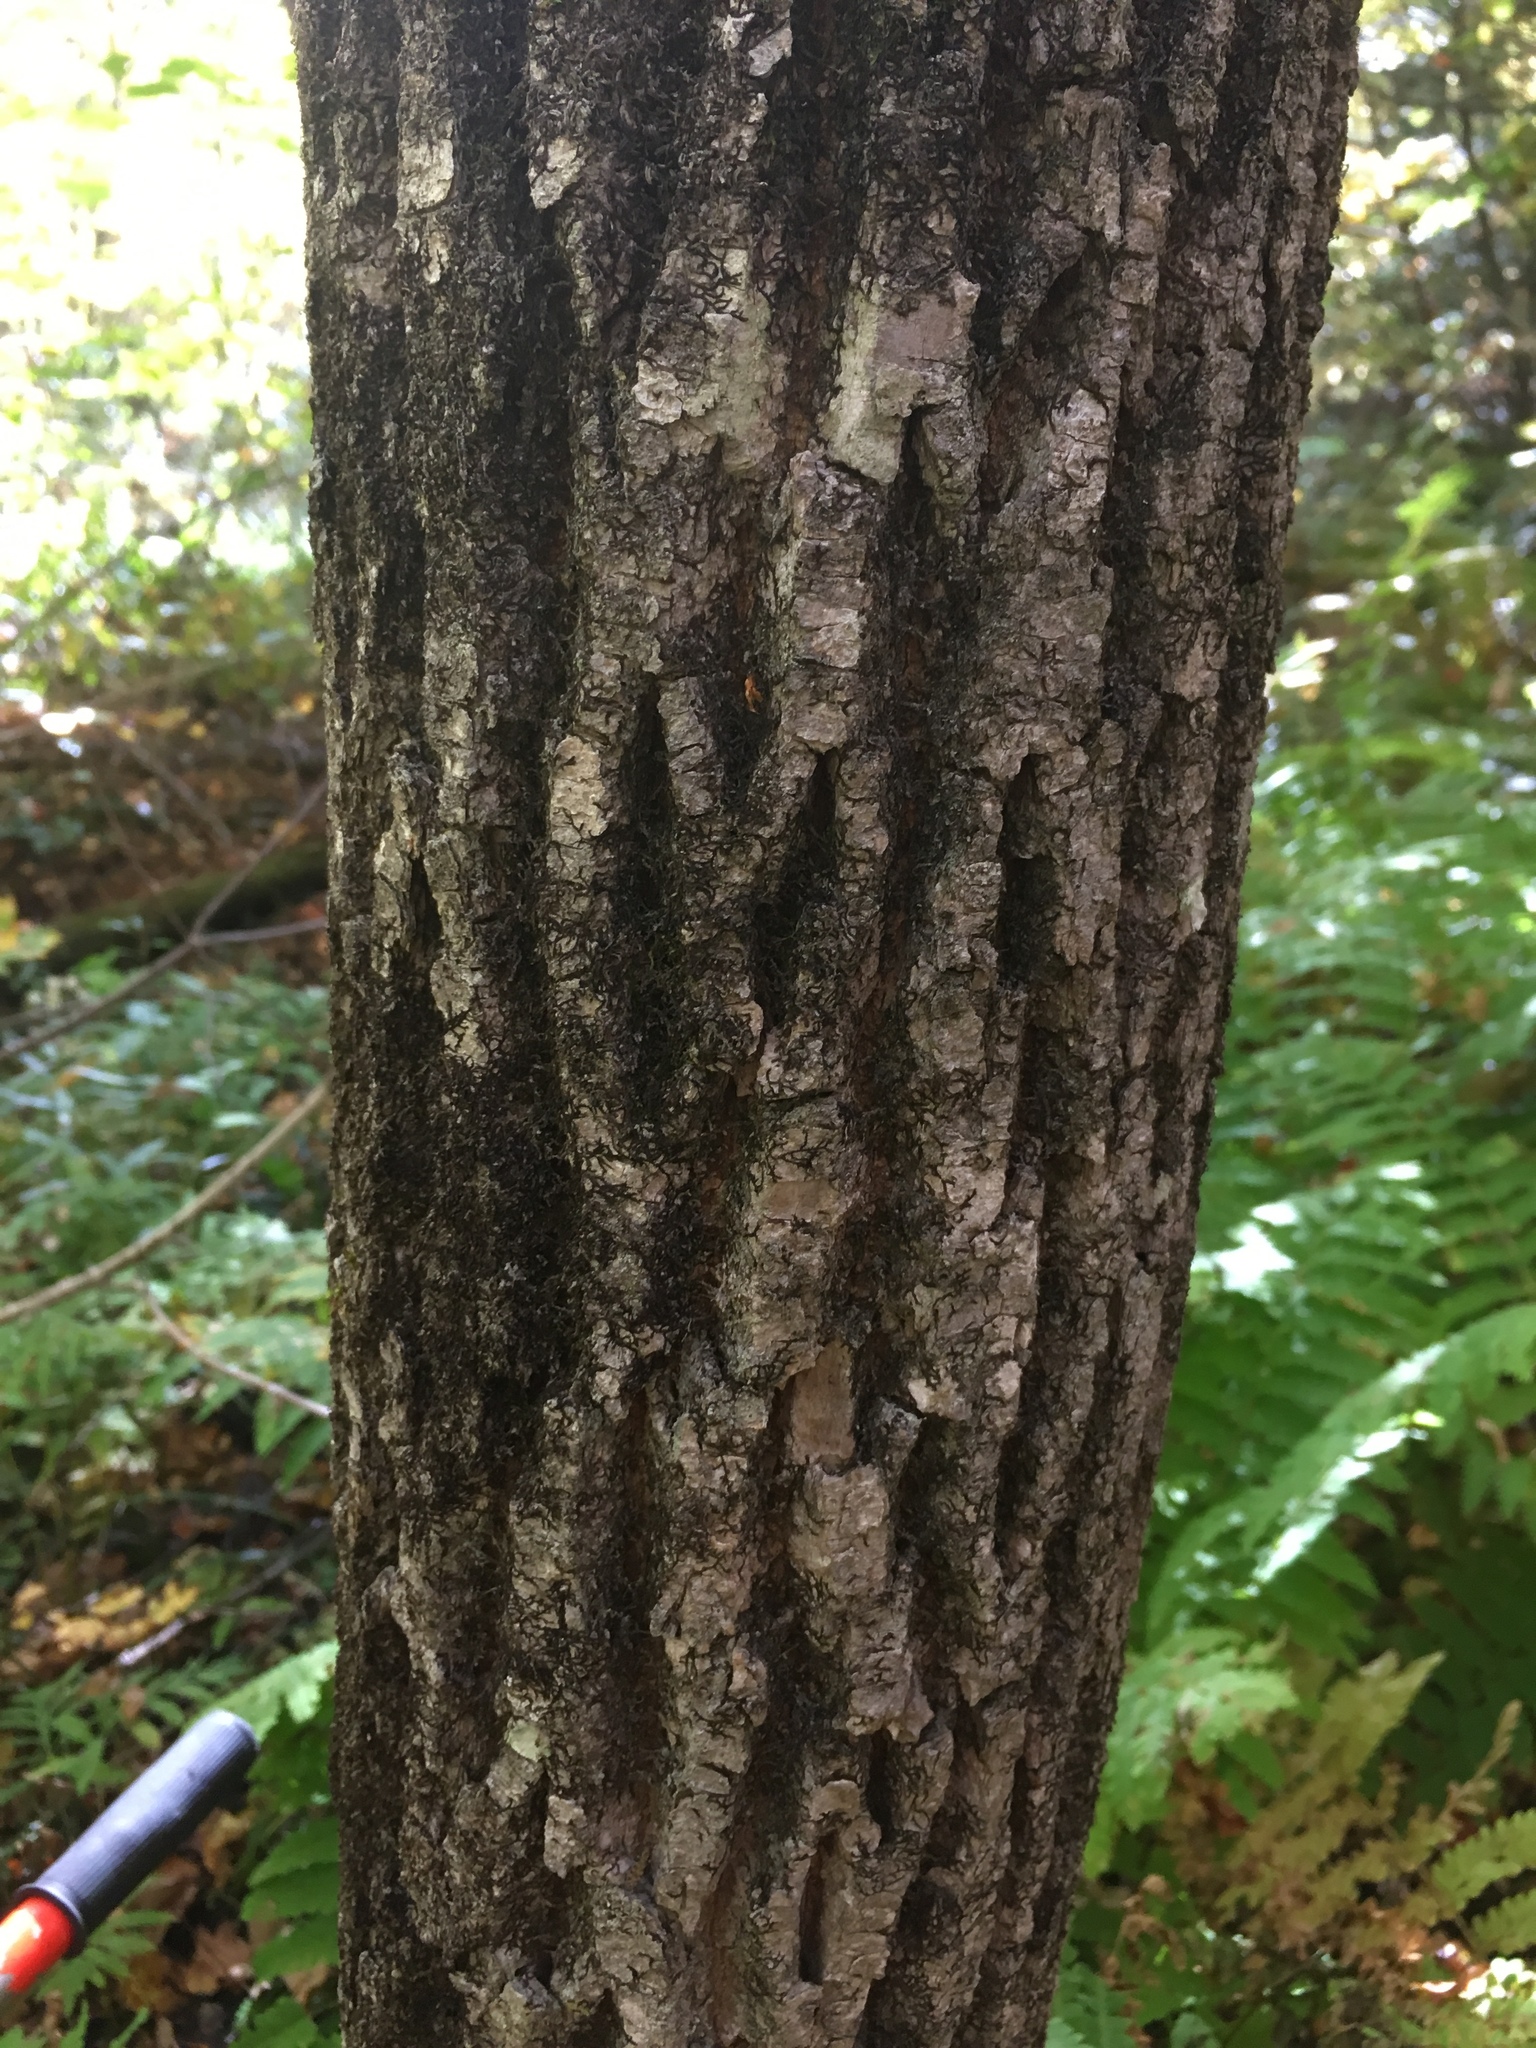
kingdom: Plantae
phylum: Tracheophyta
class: Magnoliopsida
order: Lamiales
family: Oleaceae
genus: Fraxinus
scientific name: Fraxinus americana
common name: White ash
